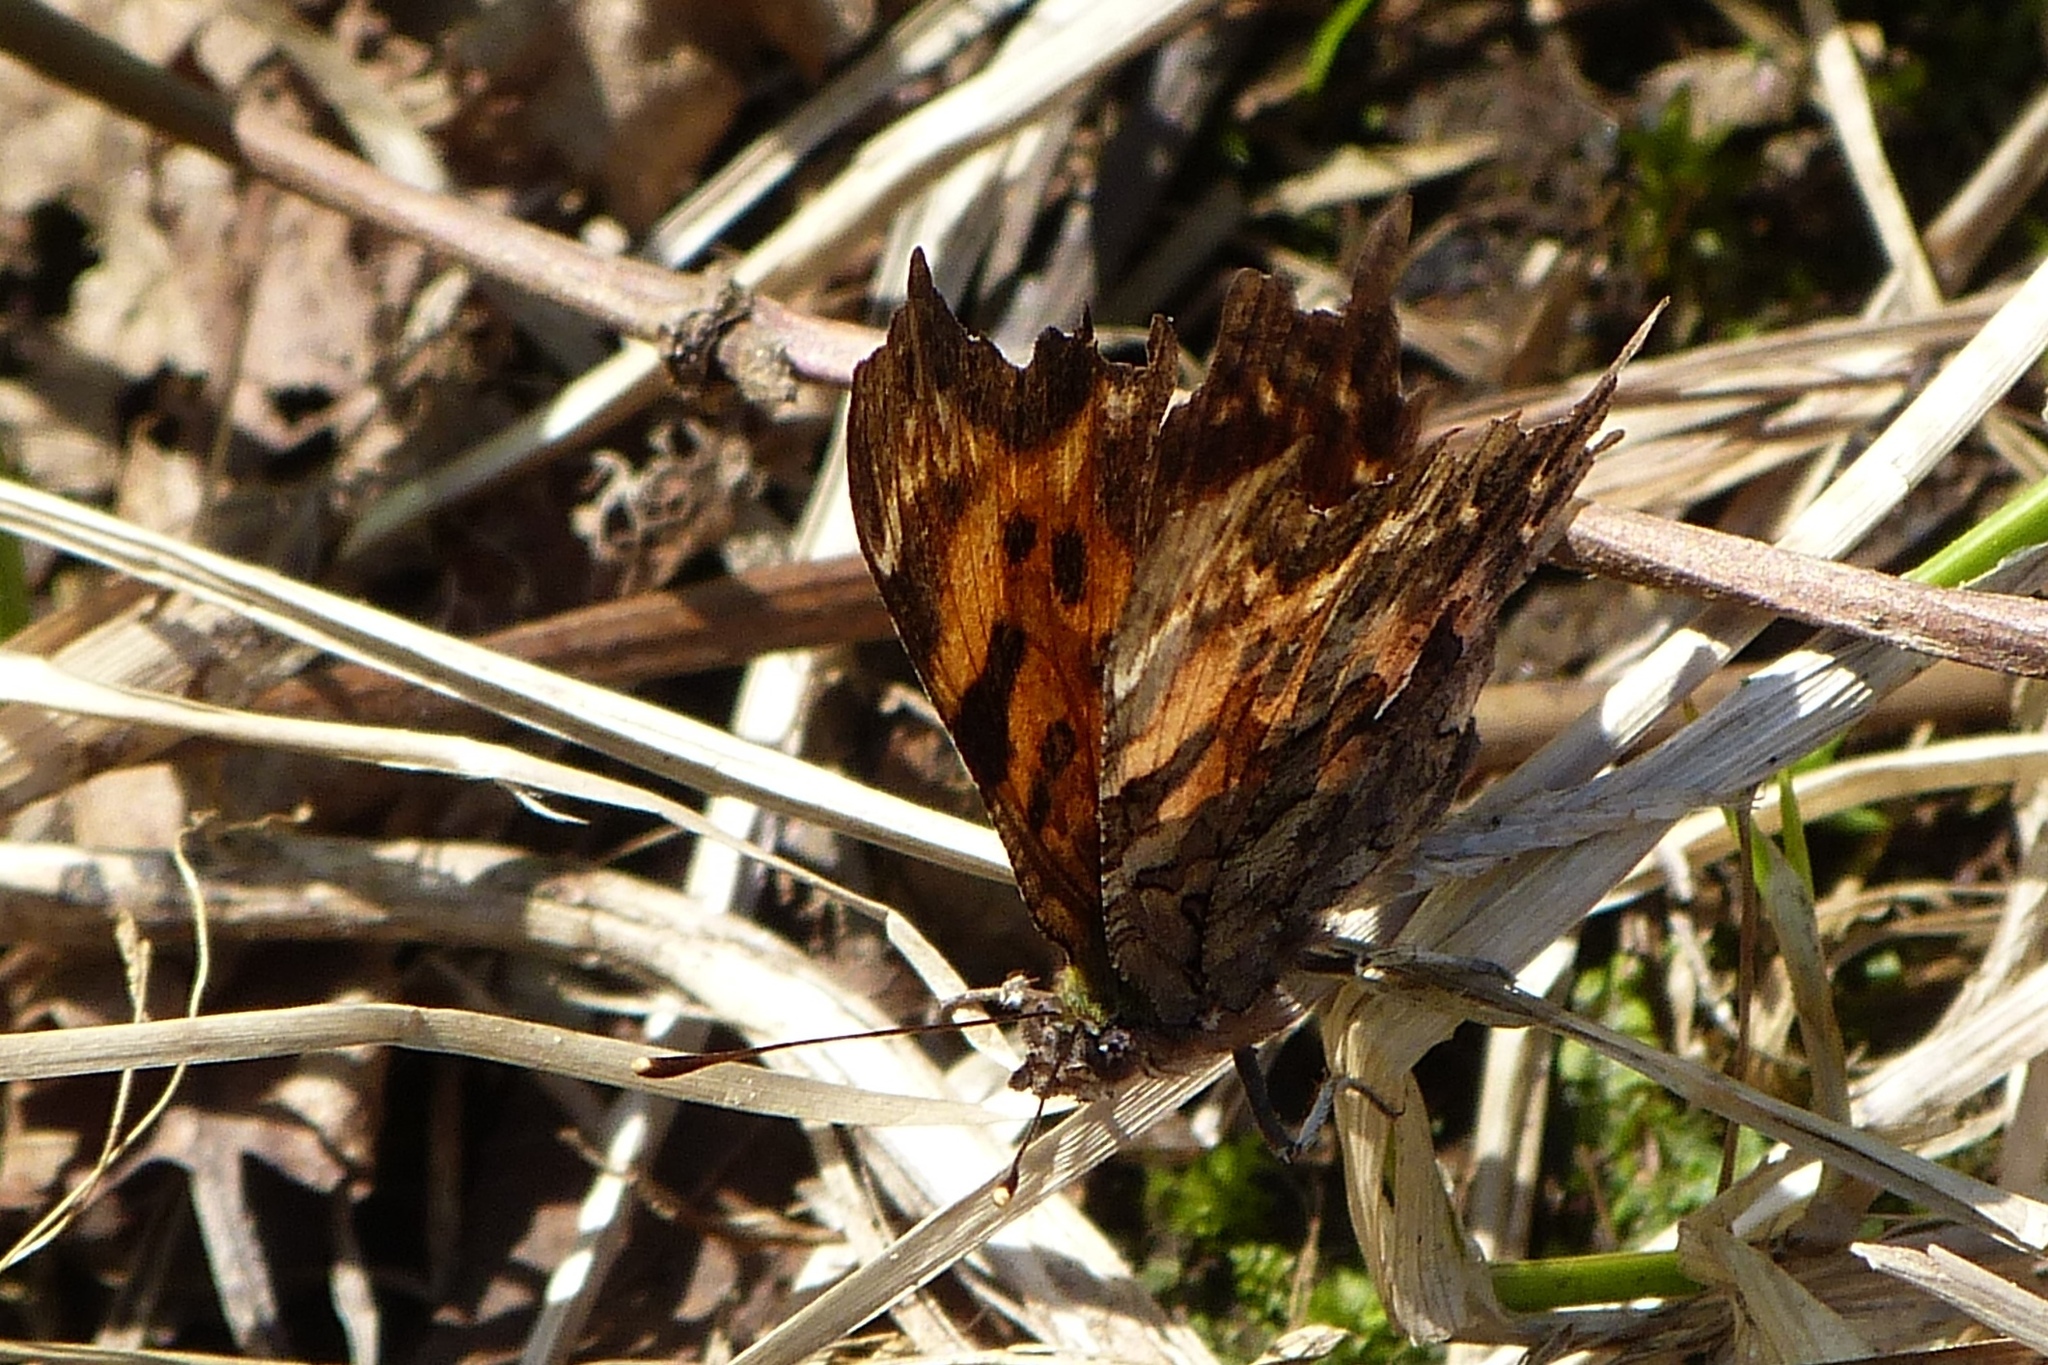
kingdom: Animalia
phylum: Arthropoda
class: Insecta
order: Lepidoptera
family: Nymphalidae
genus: Polygonia
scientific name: Polygonia faunus
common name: Green comma
